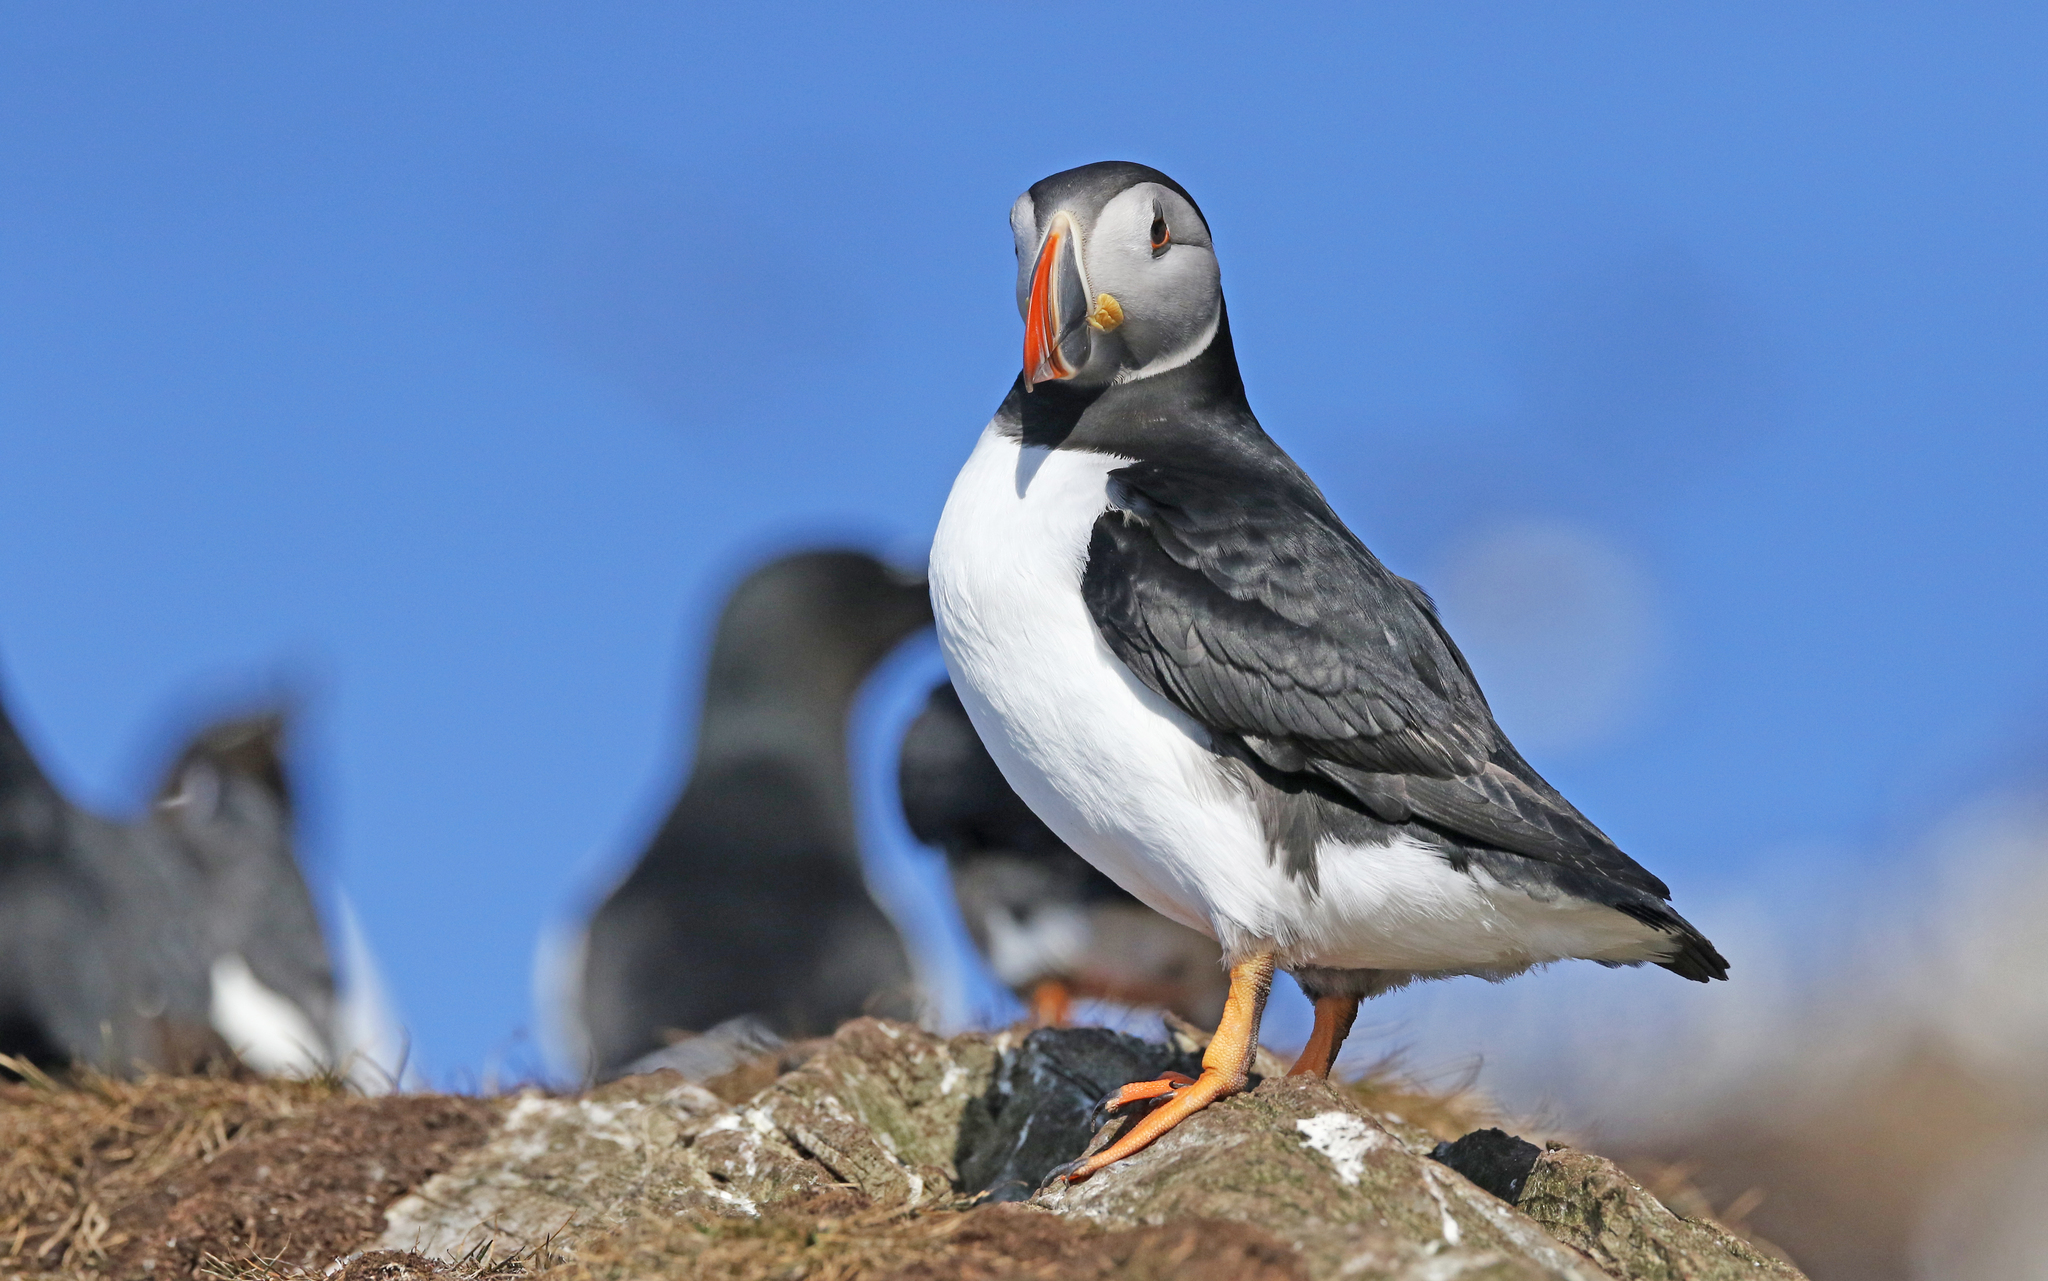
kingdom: Animalia
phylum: Chordata
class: Aves
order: Charadriiformes
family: Alcidae
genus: Fratercula
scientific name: Fratercula arctica
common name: Atlantic puffin
